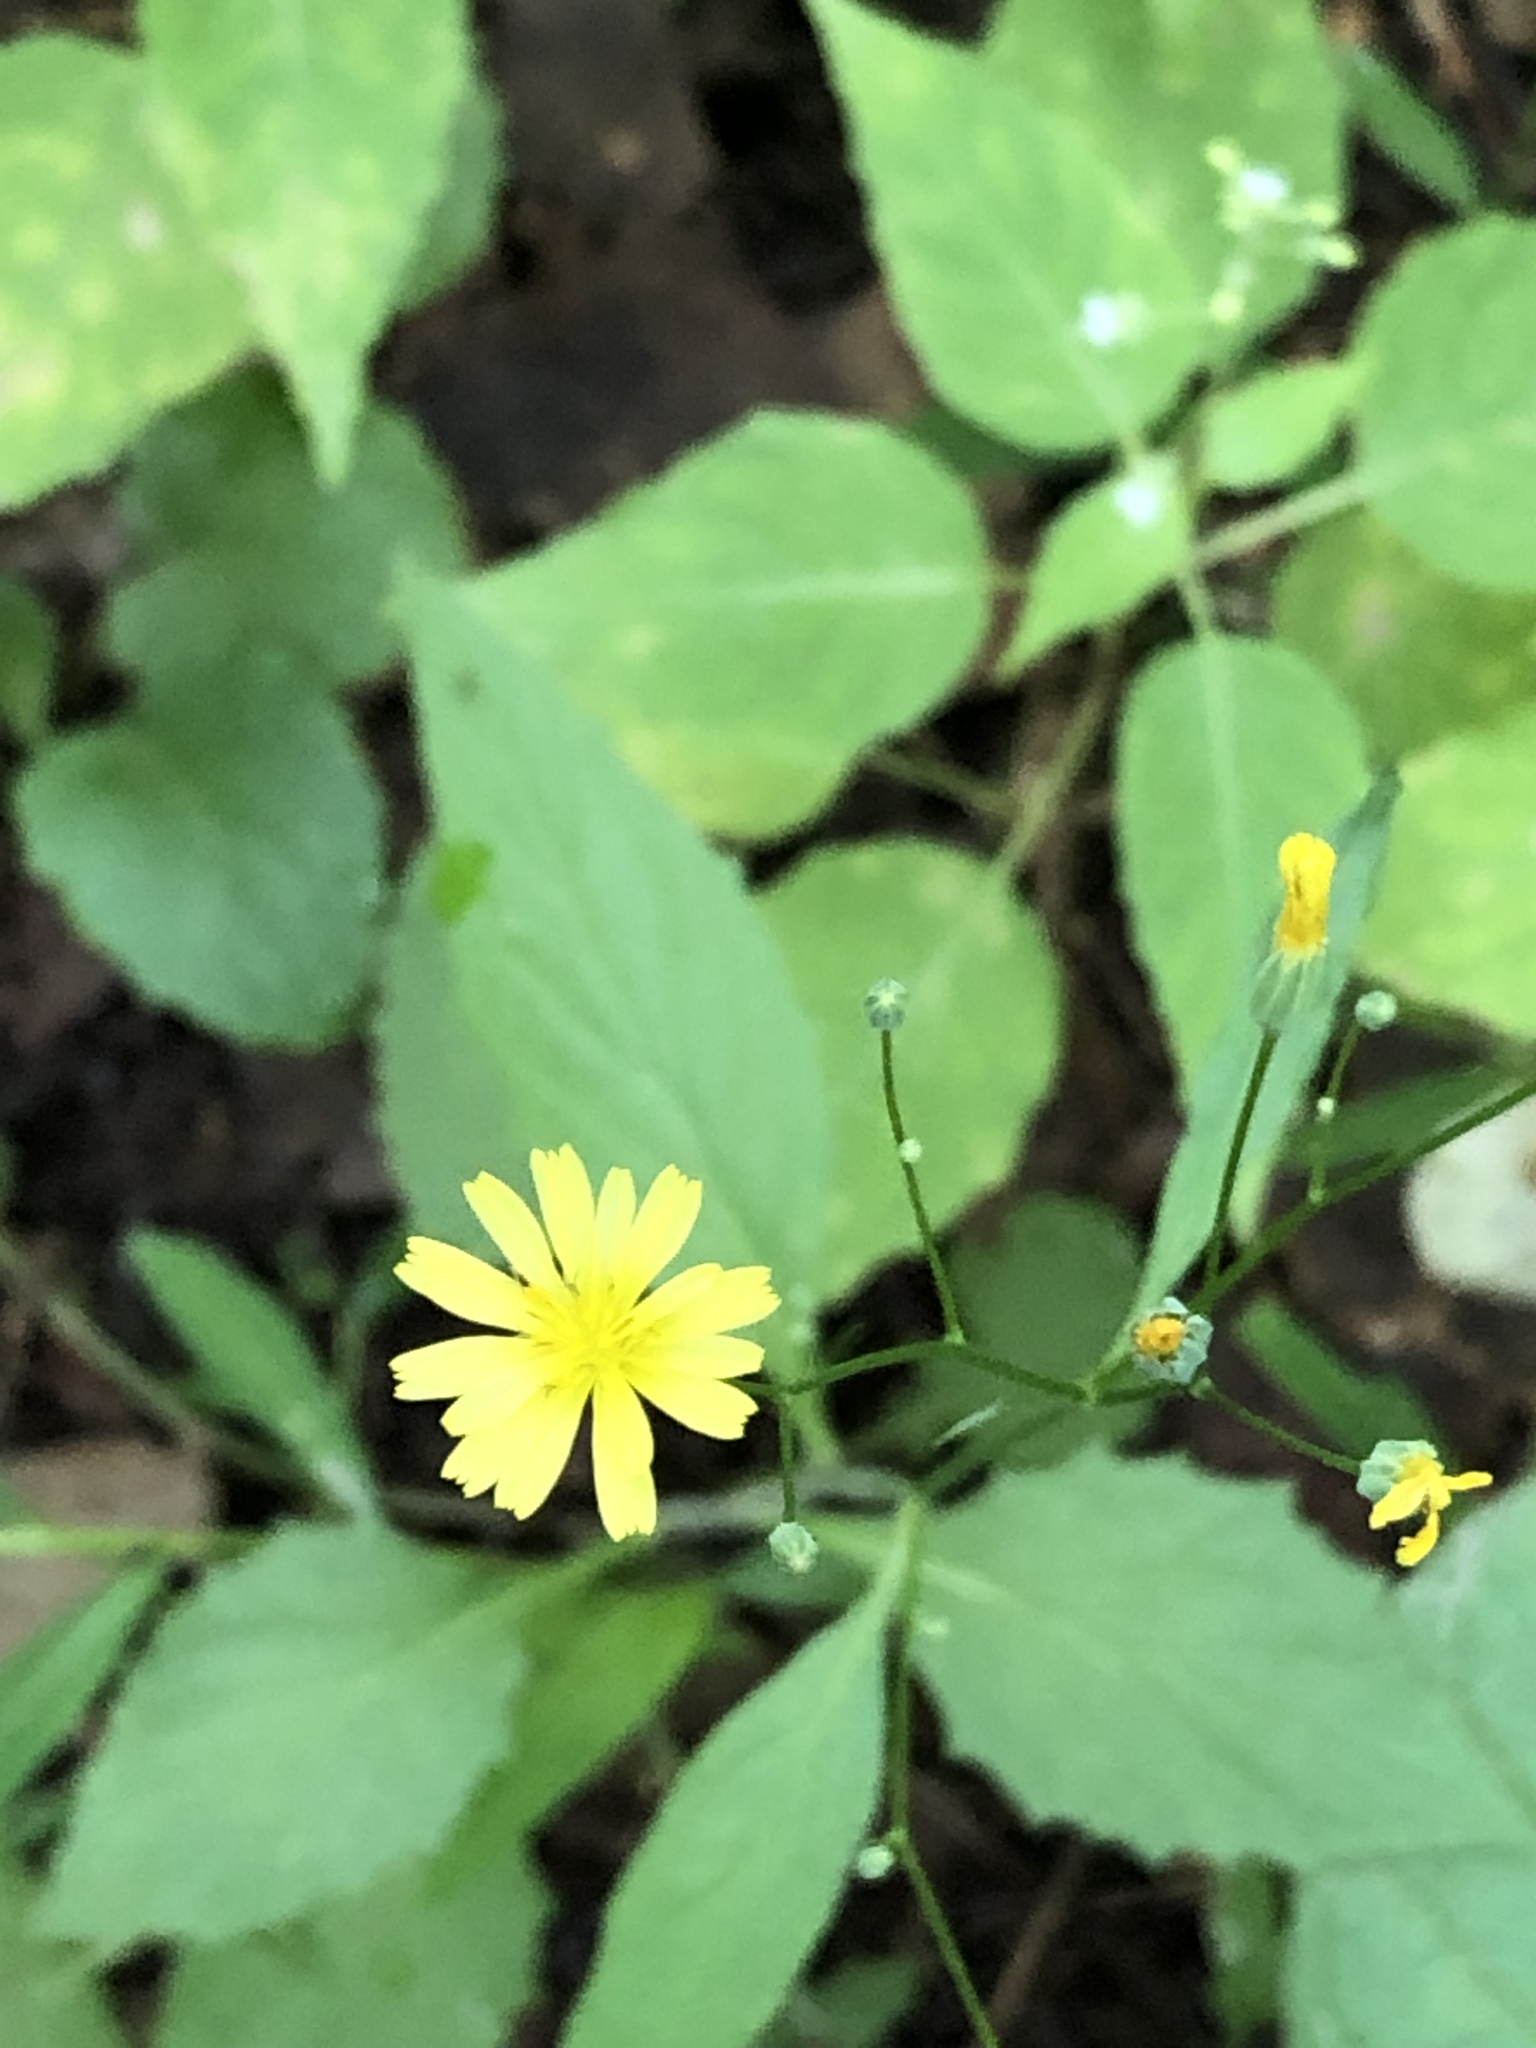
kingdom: Plantae
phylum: Tracheophyta
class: Magnoliopsida
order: Asterales
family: Asteraceae
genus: Lapsana
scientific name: Lapsana communis
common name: Nipplewort
